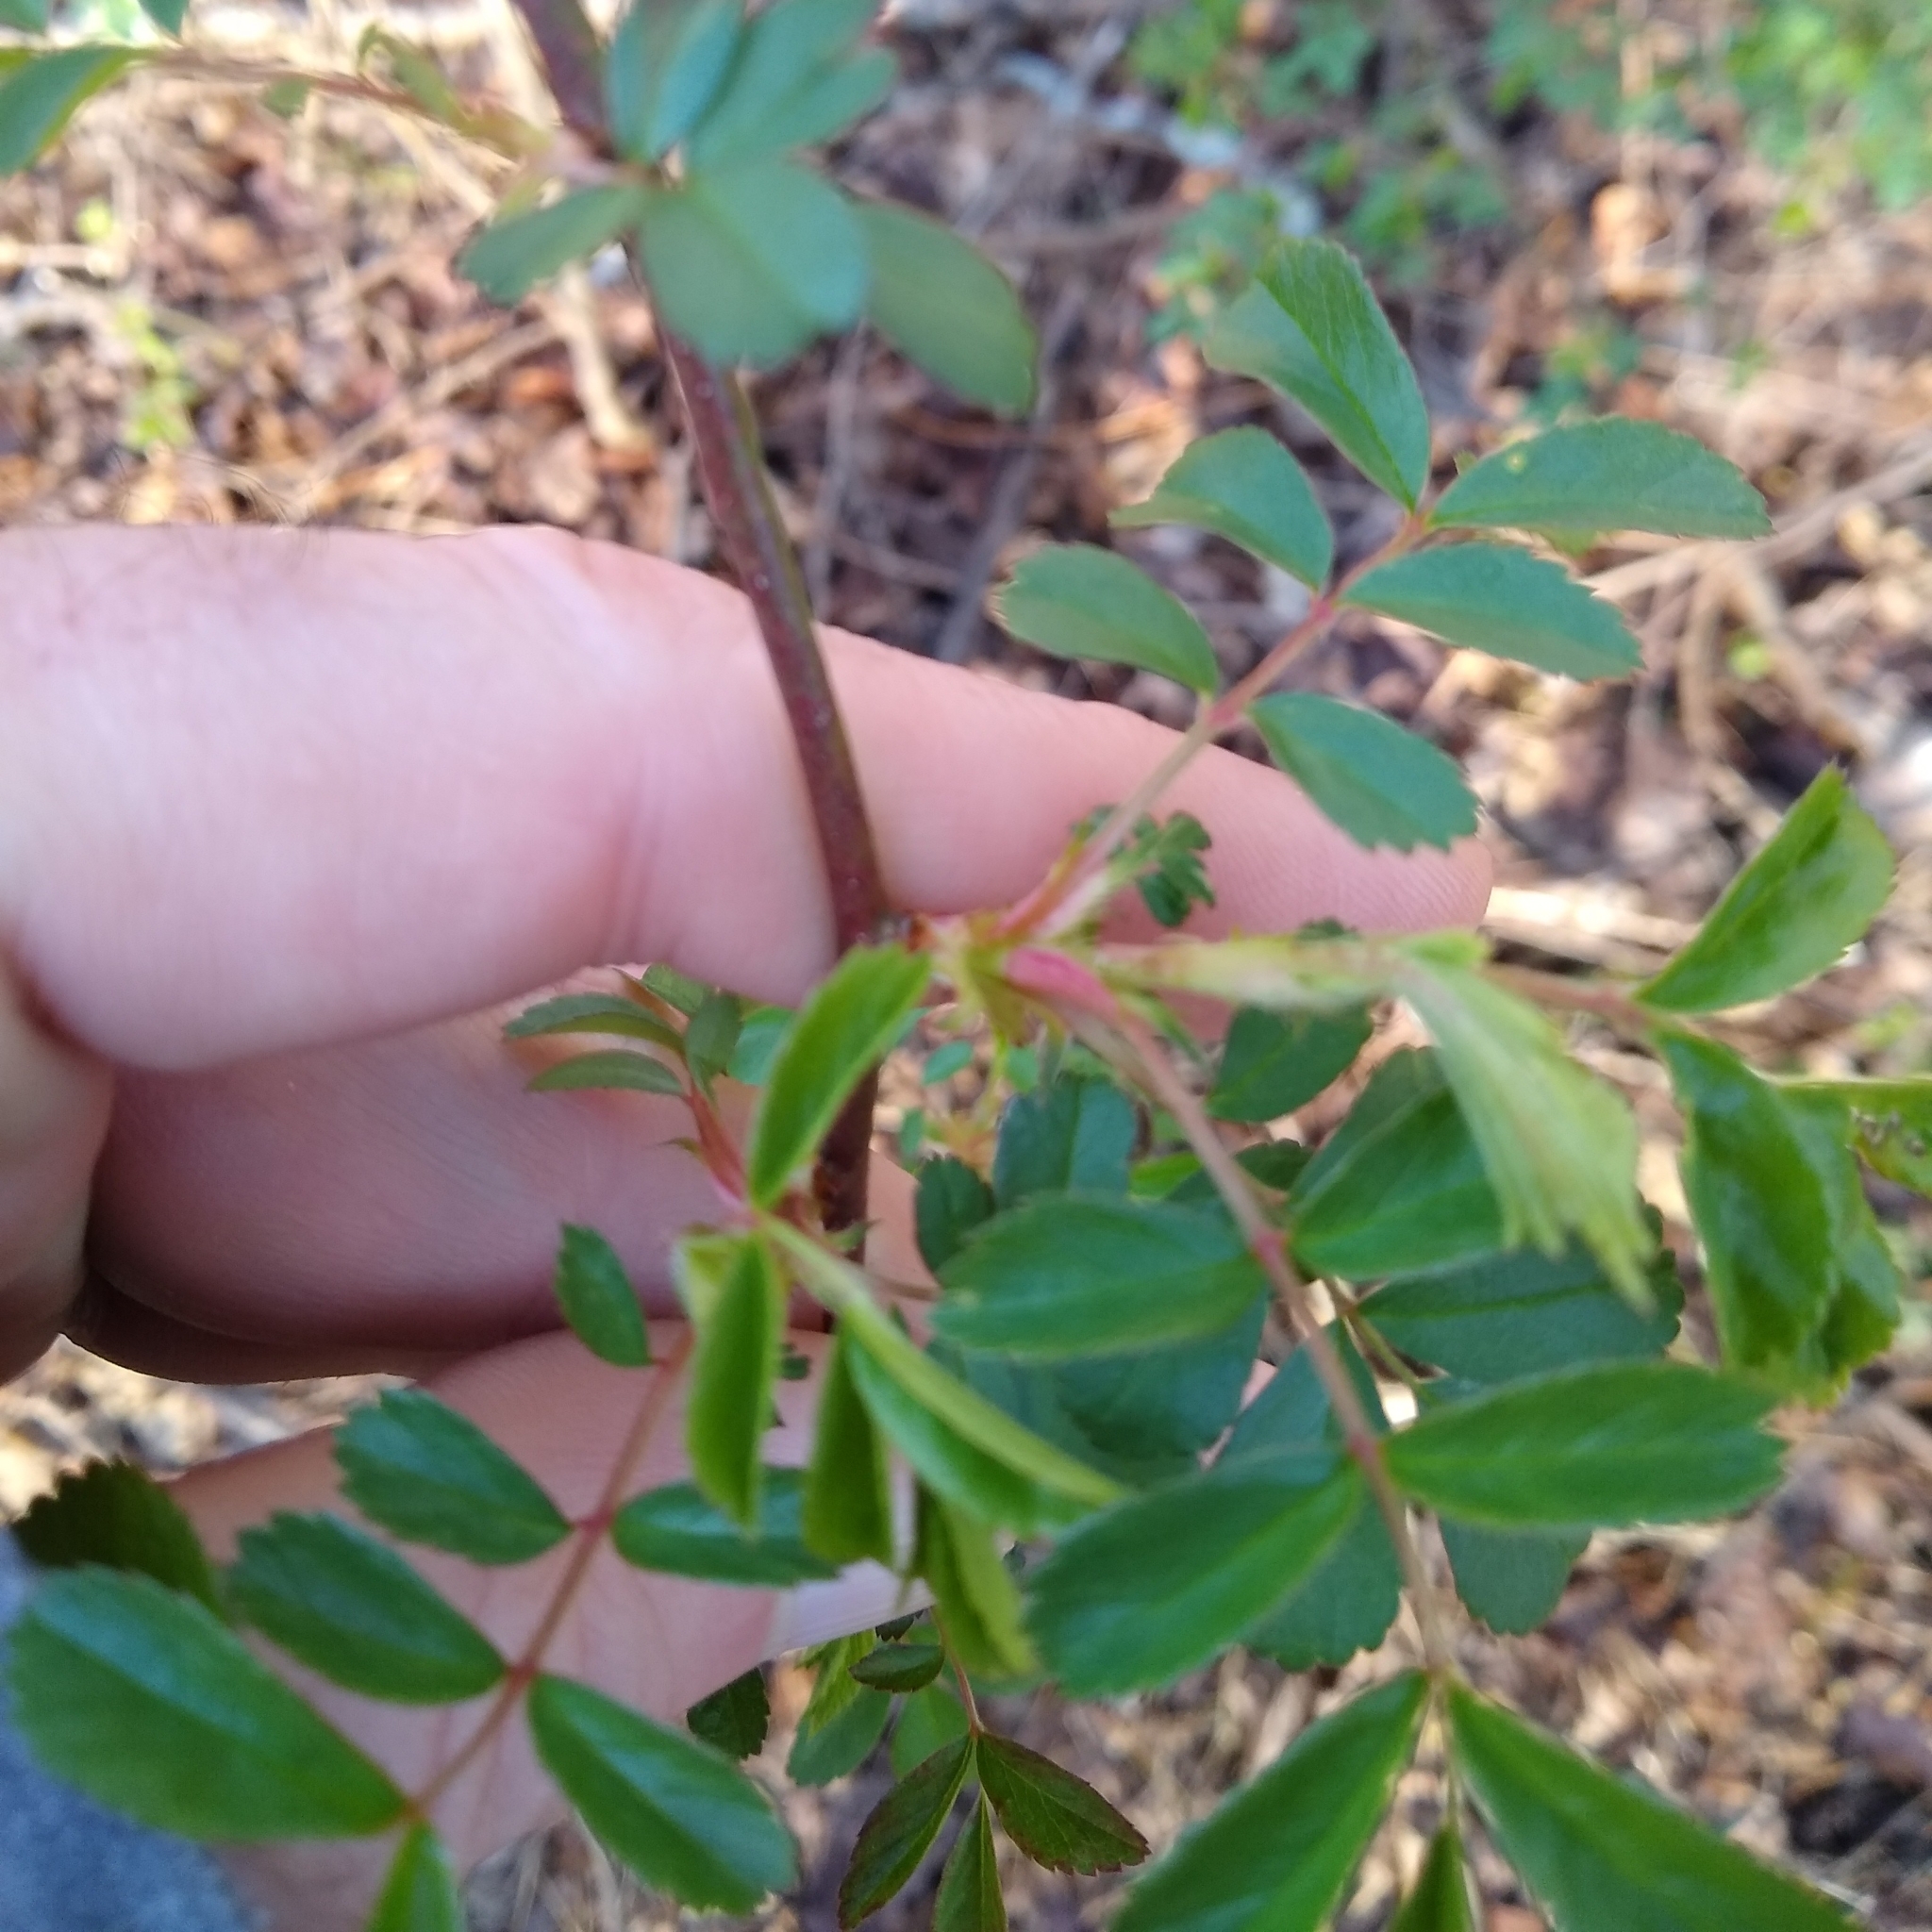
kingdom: Plantae
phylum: Tracheophyta
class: Magnoliopsida
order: Rosales
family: Rosaceae
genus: Rosa
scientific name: Rosa multiflora
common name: Multiflora rose
